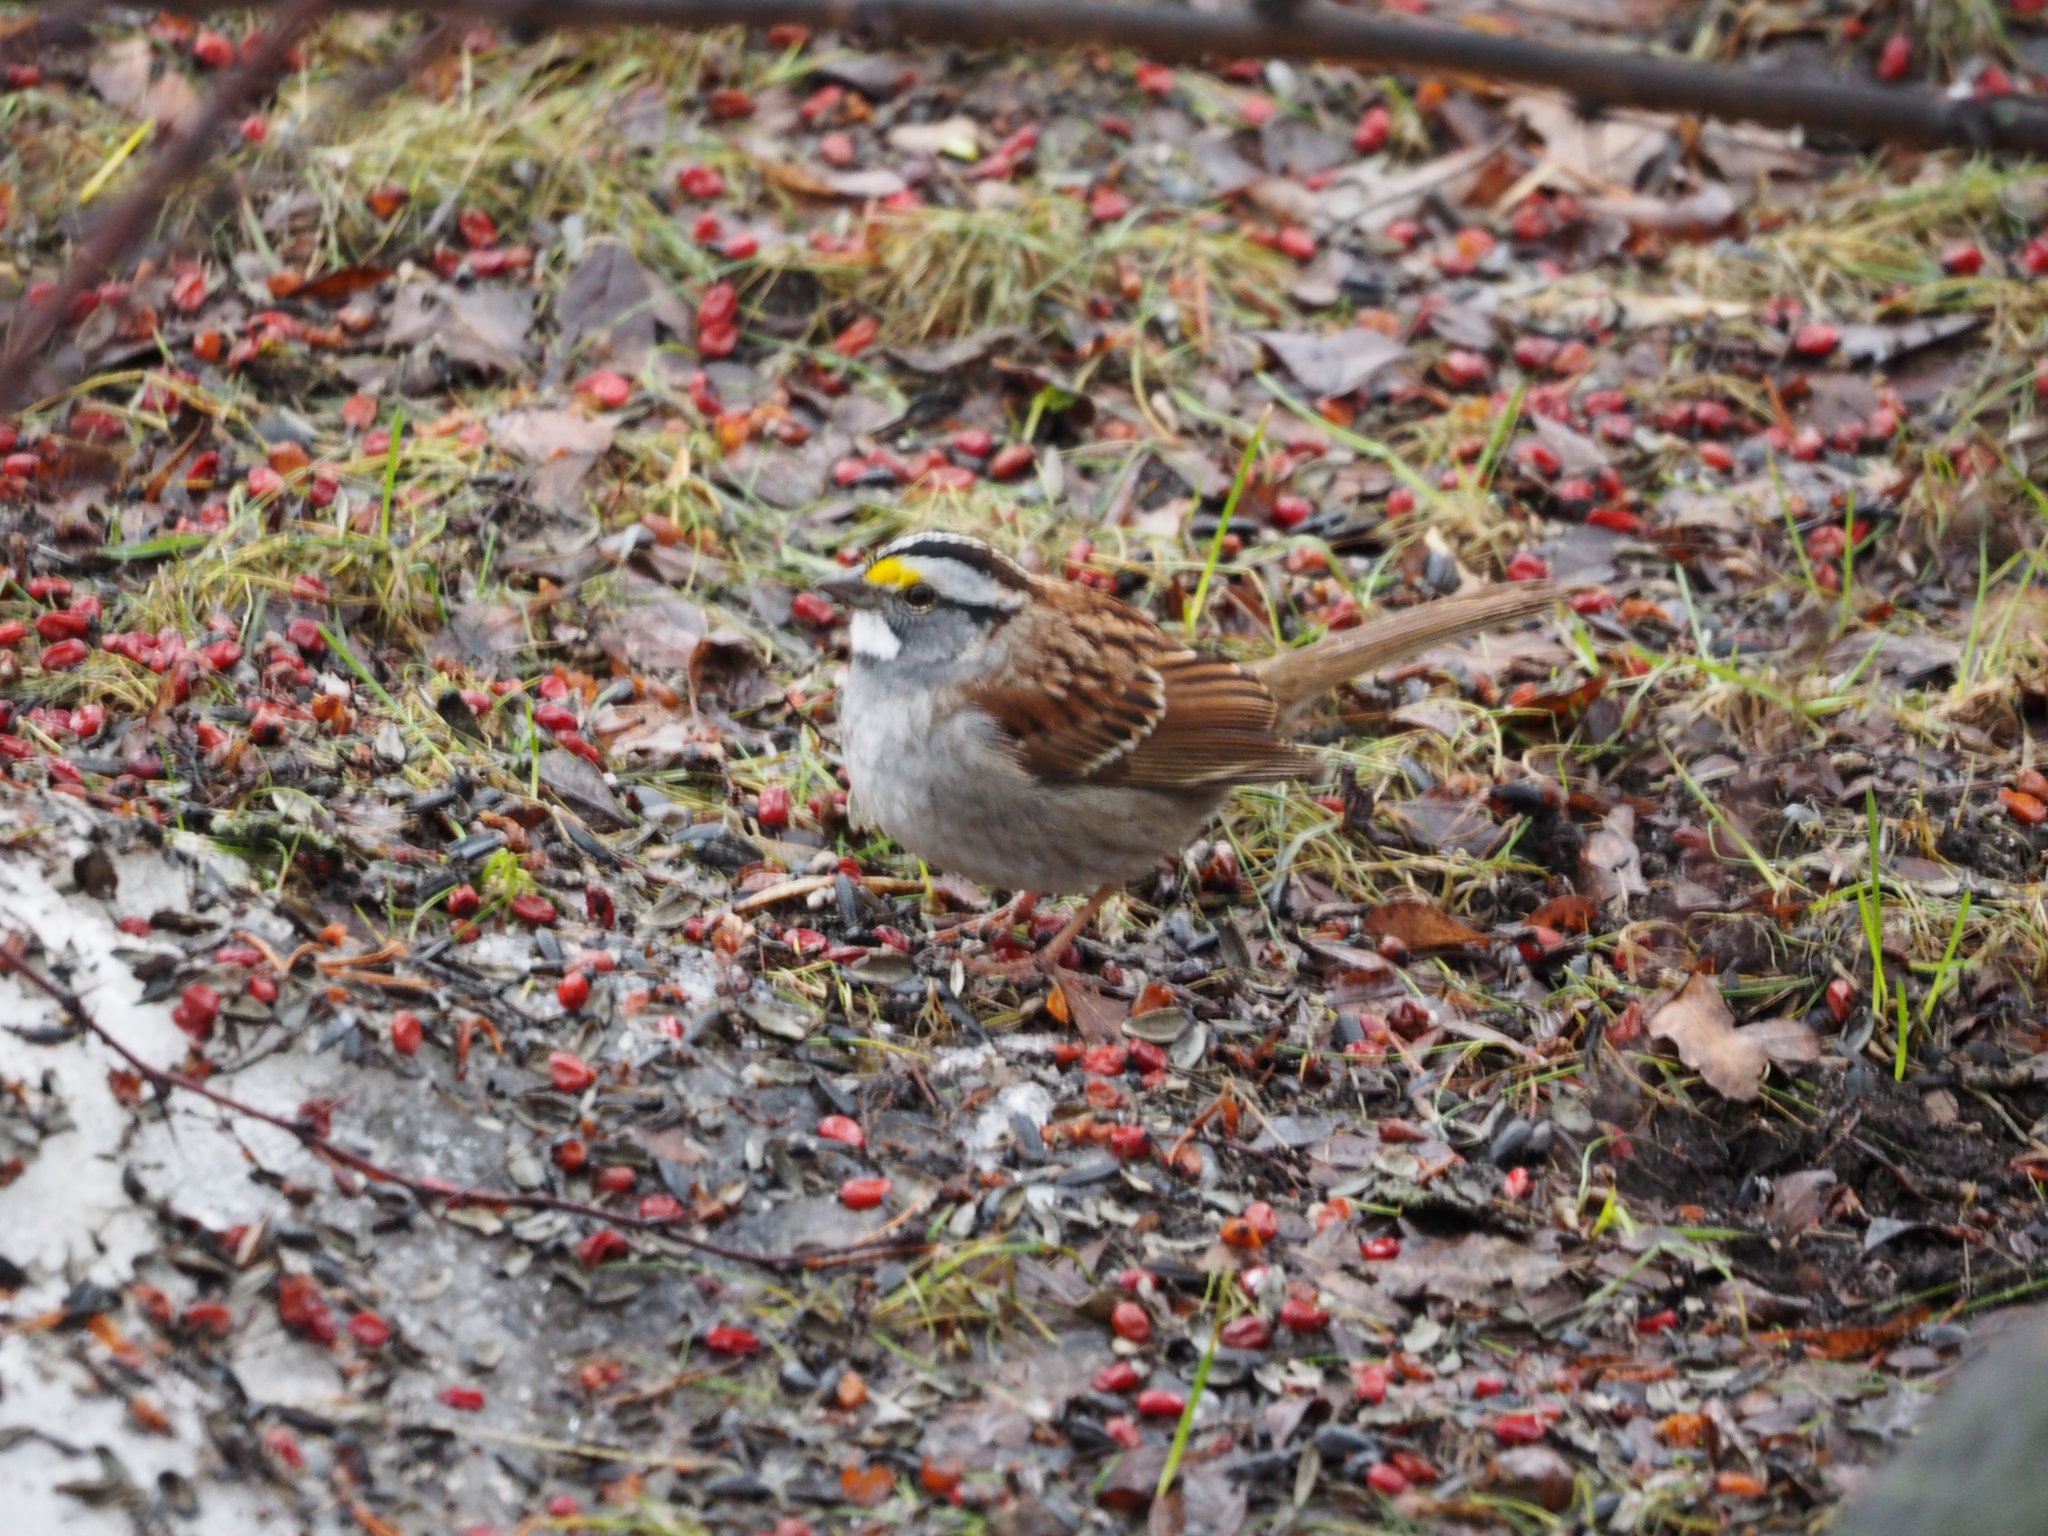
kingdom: Animalia
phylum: Chordata
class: Aves
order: Passeriformes
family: Passerellidae
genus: Zonotrichia
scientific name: Zonotrichia albicollis
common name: White-throated sparrow
